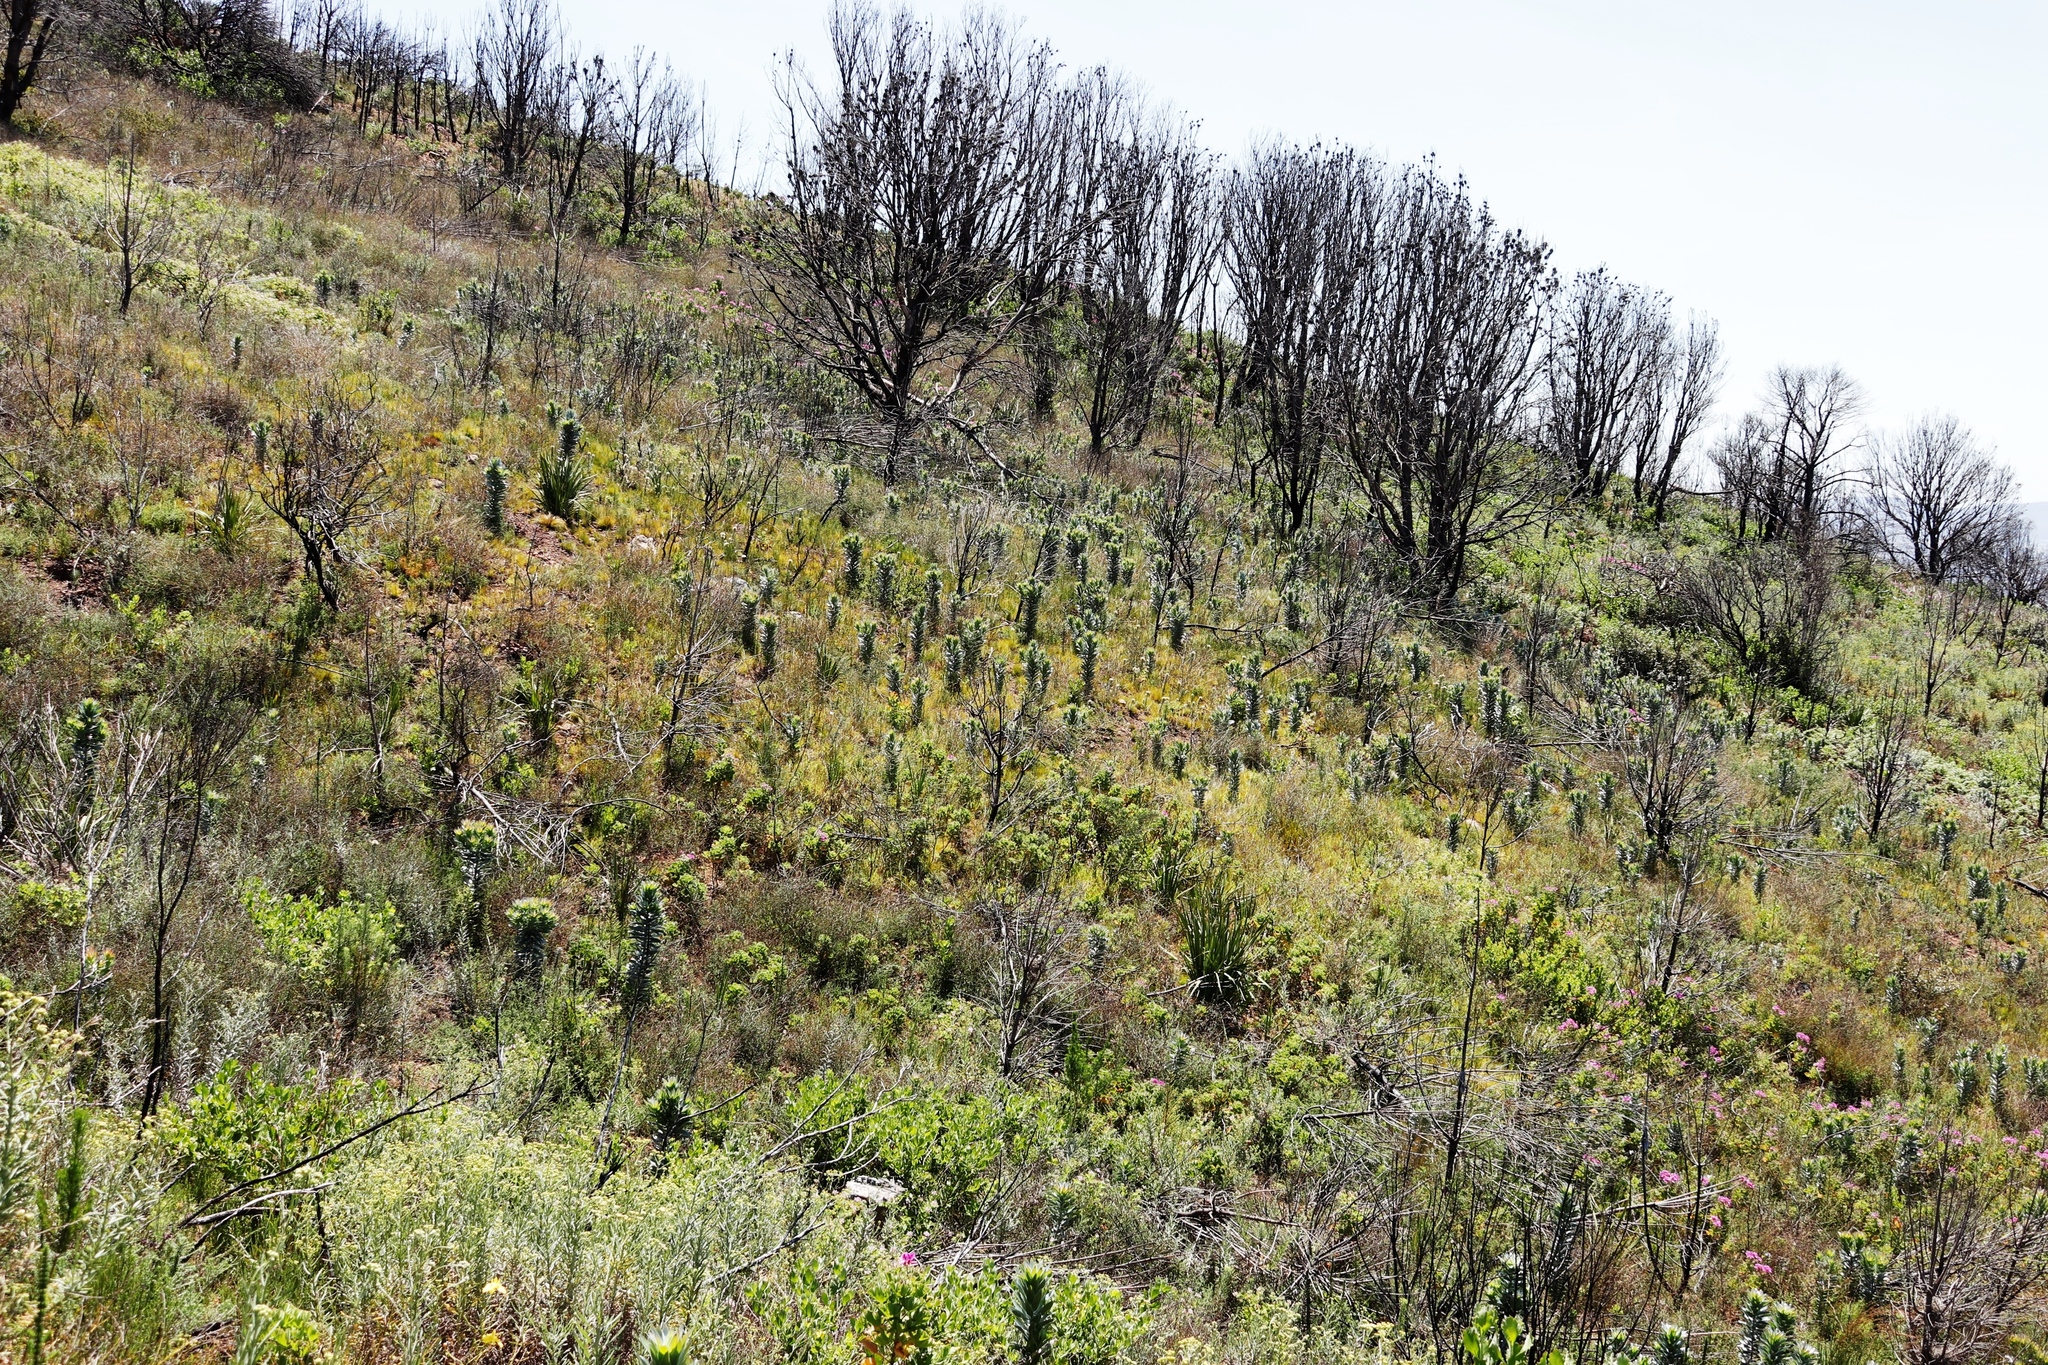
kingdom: Plantae
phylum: Tracheophyta
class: Magnoliopsida
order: Proteales
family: Proteaceae
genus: Leucadendron
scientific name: Leucadendron argenteum
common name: Cape silver tree
